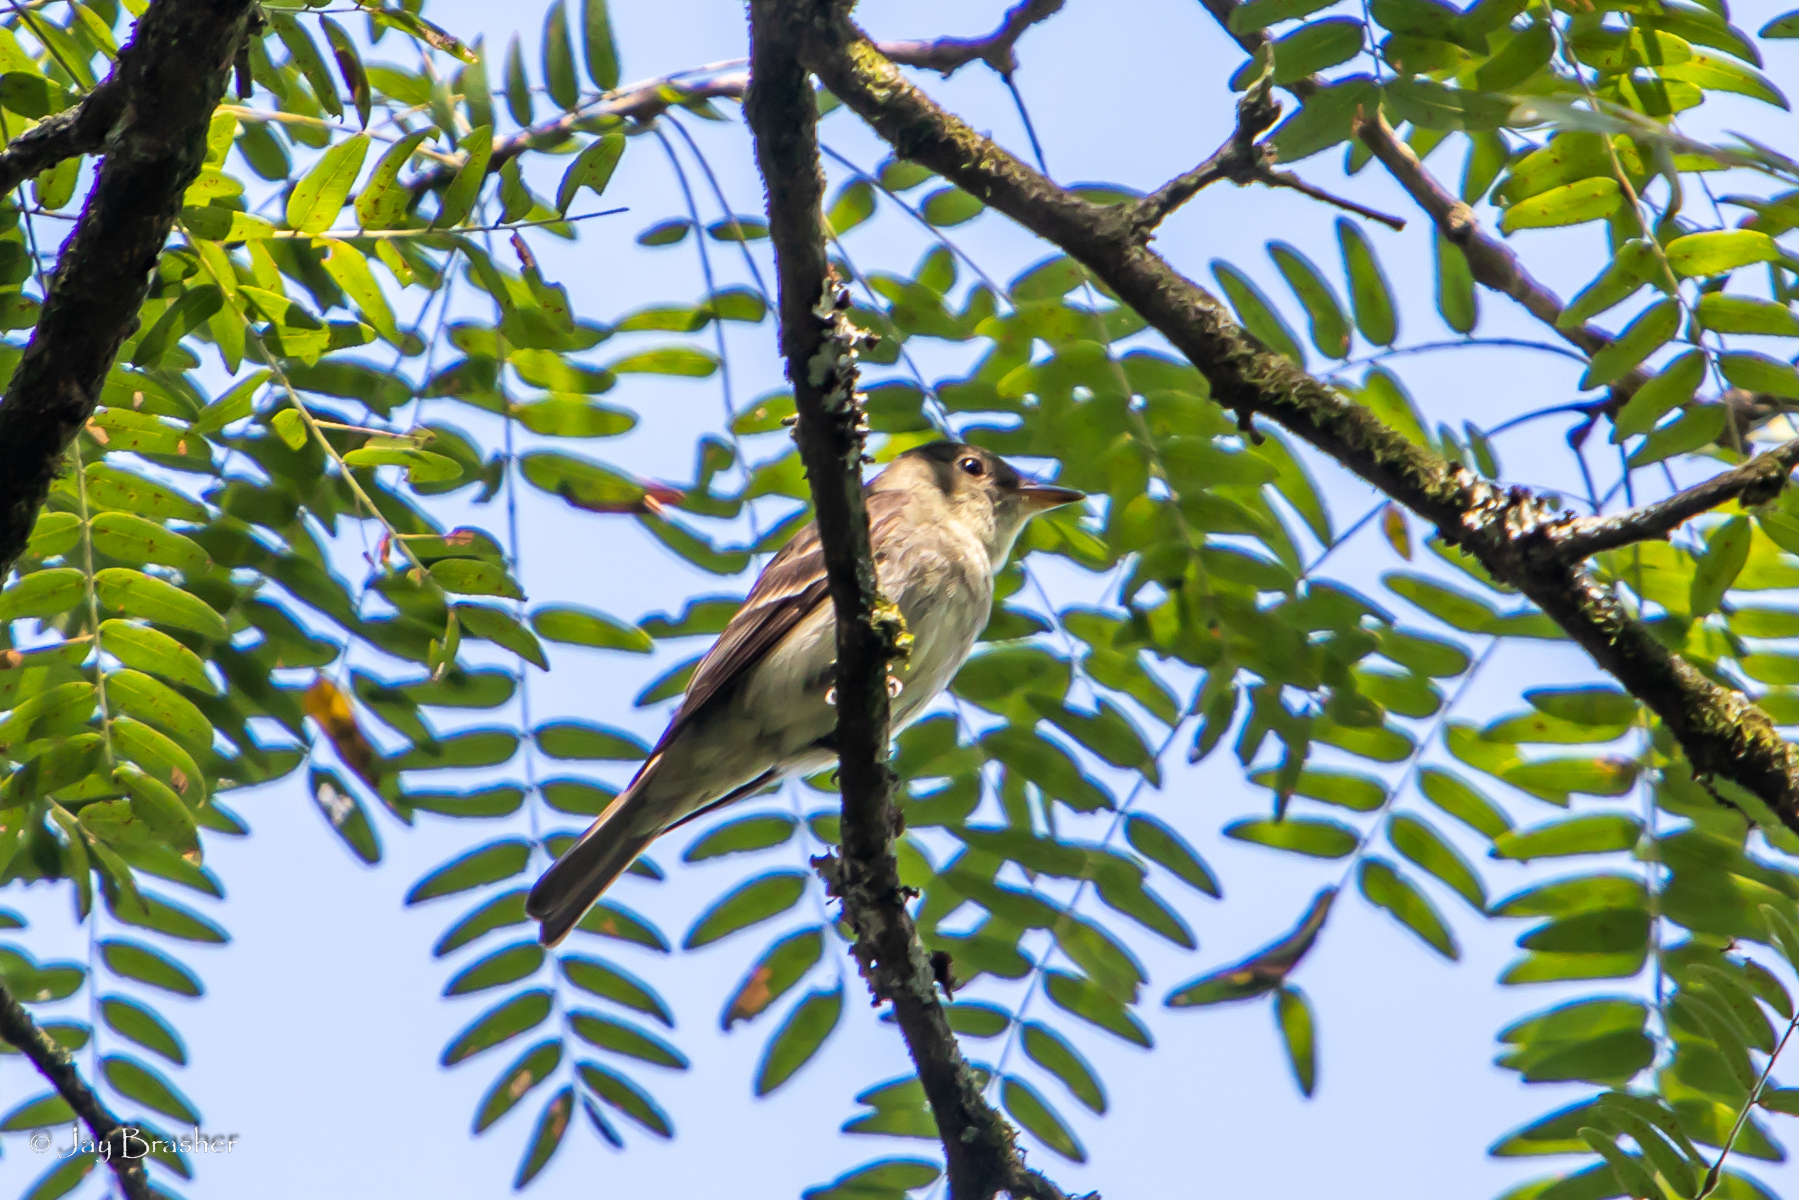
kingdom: Animalia
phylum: Chordata
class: Aves
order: Passeriformes
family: Tyrannidae
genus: Contopus
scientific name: Contopus virens
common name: Eastern wood-pewee
